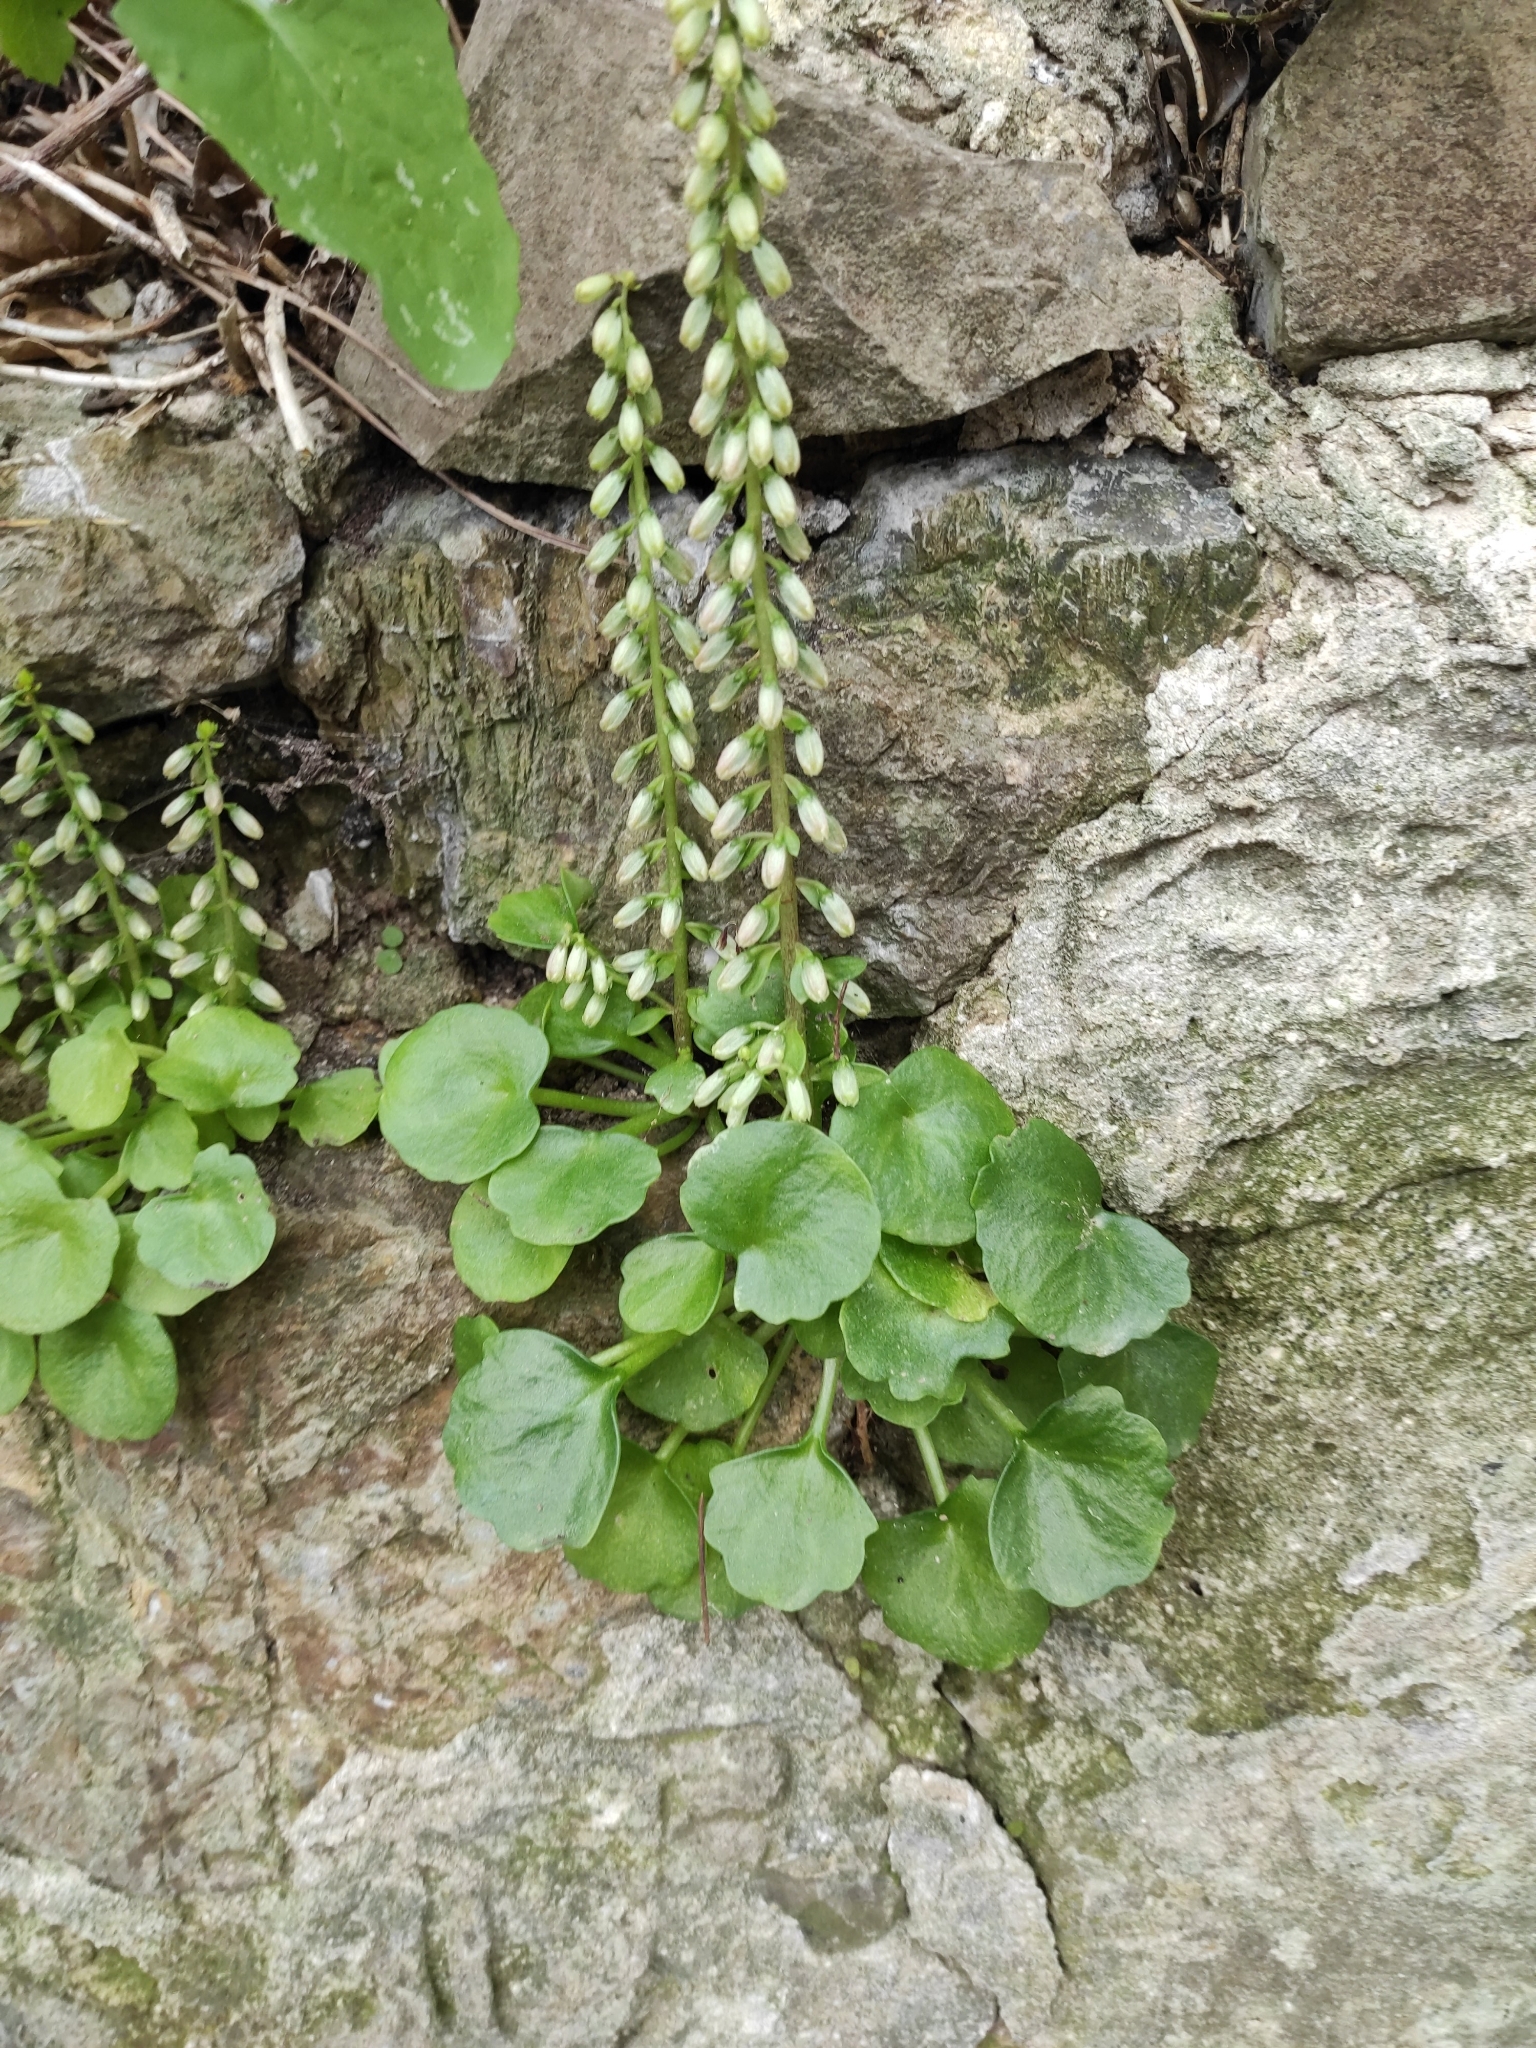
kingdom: Plantae
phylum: Tracheophyta
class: Magnoliopsida
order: Saxifragales
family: Crassulaceae
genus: Umbilicus
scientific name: Umbilicus rupestris
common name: Navelwort
